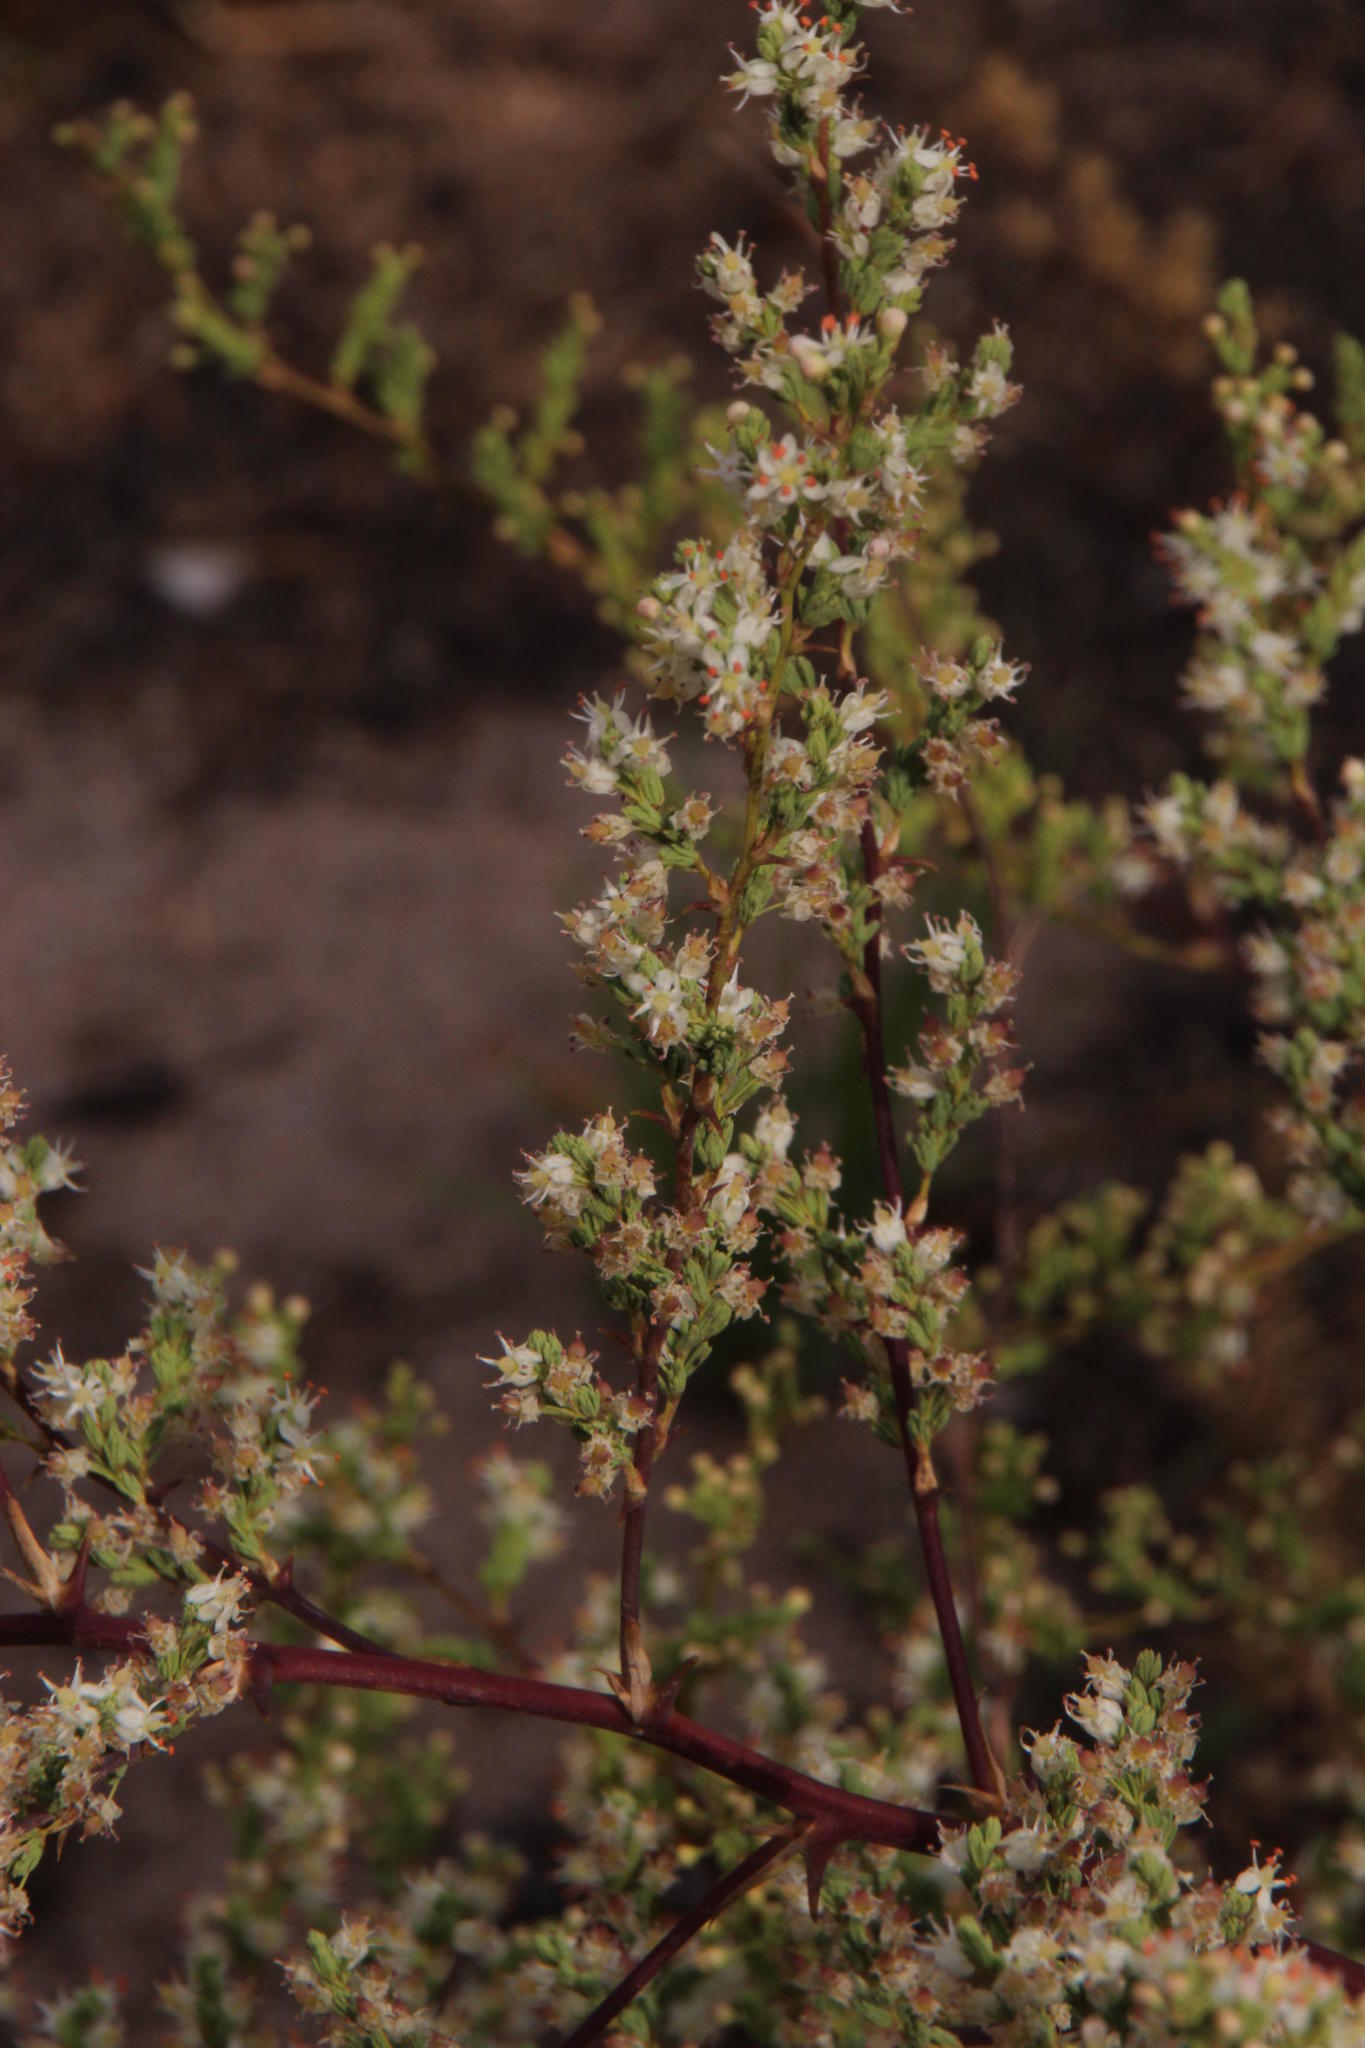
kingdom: Plantae
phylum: Tracheophyta
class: Liliopsida
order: Asparagales
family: Asparagaceae
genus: Asparagus
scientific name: Asparagus rubicundus
